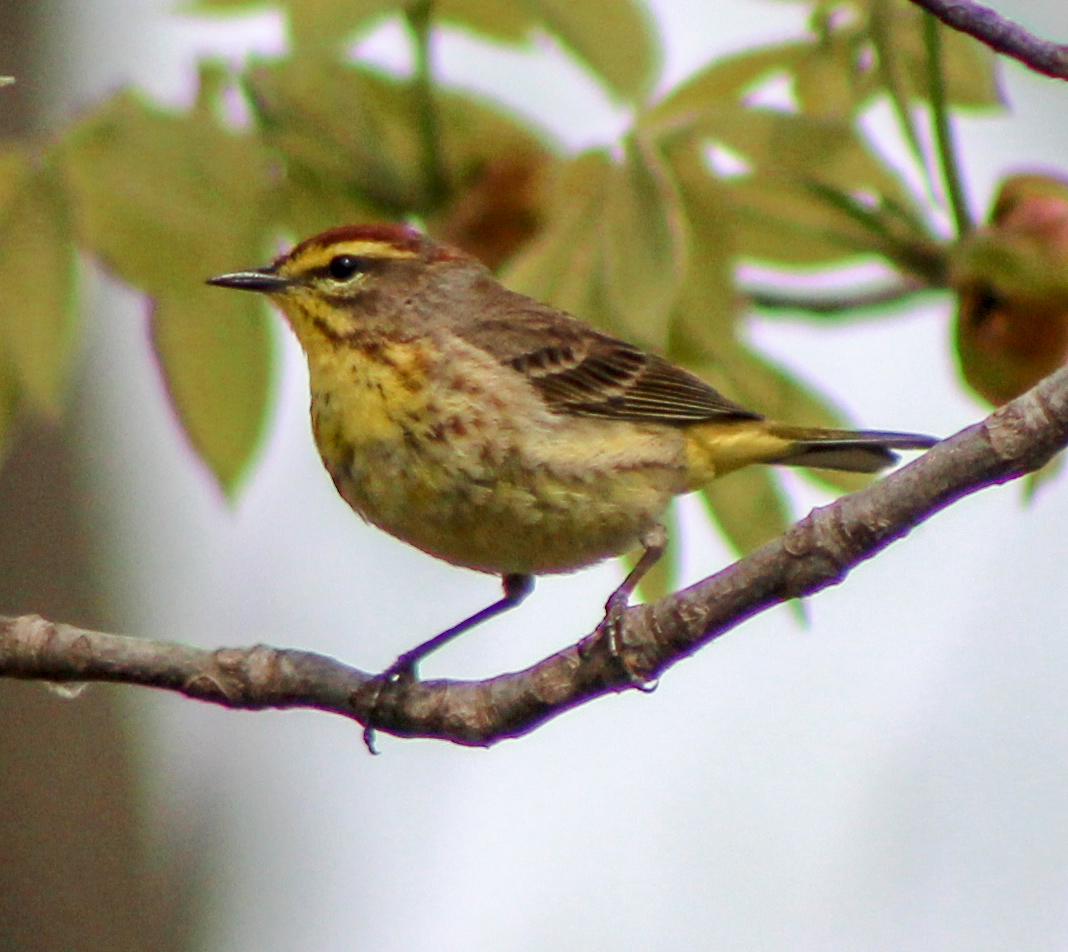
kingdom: Animalia
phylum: Chordata
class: Aves
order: Passeriformes
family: Parulidae
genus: Setophaga
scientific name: Setophaga palmarum
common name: Palm warbler
